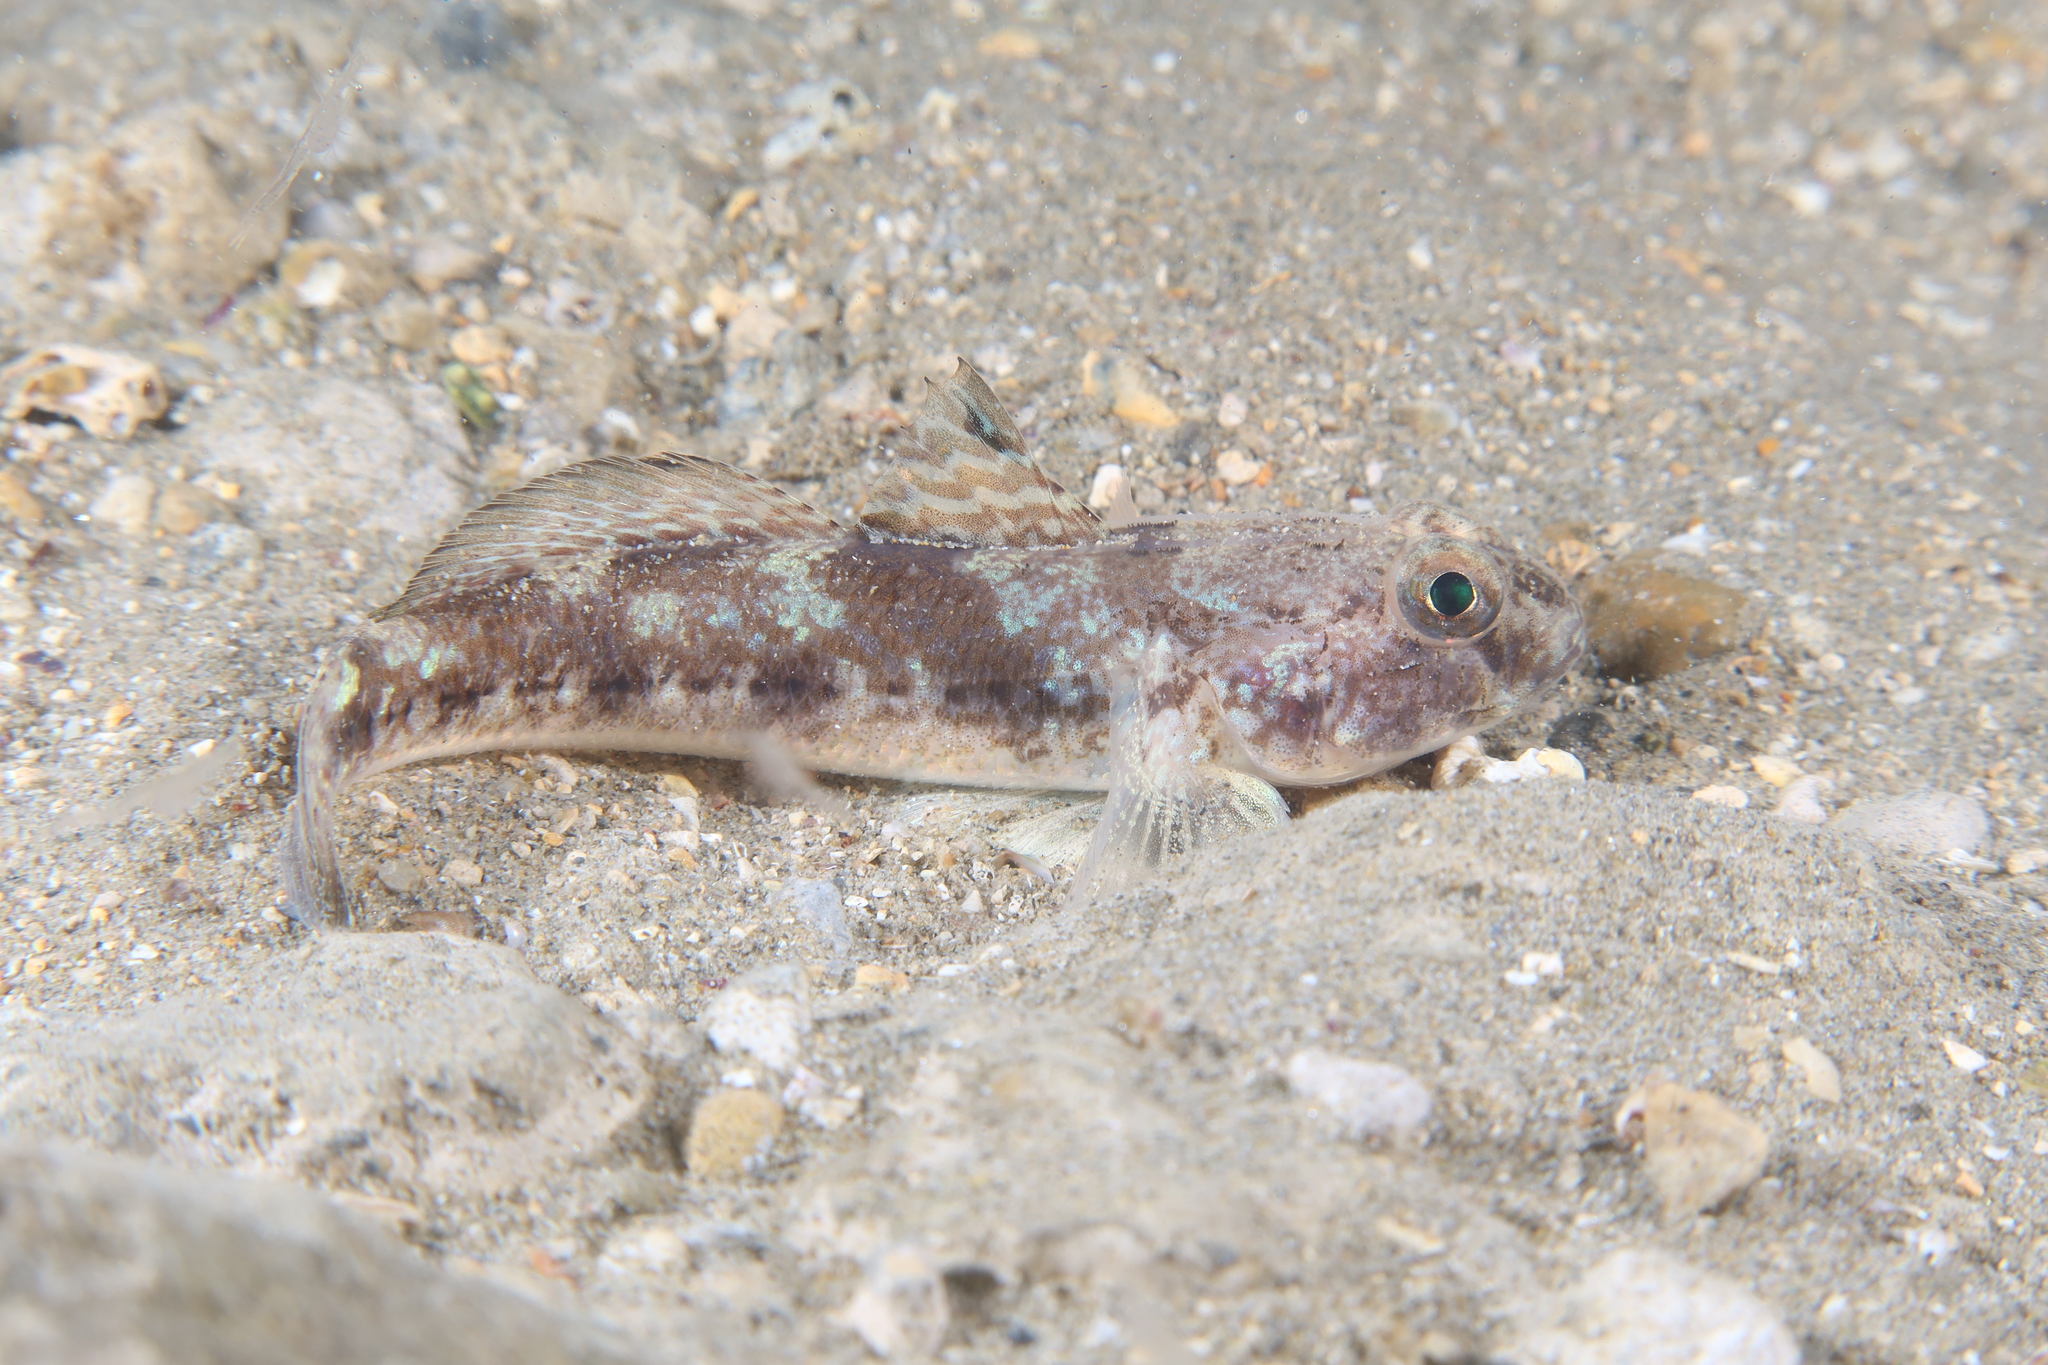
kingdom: Animalia
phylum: Chordata
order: Perciformes
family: Gobiidae
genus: Gobius
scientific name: Gobius niger
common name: Black goby
